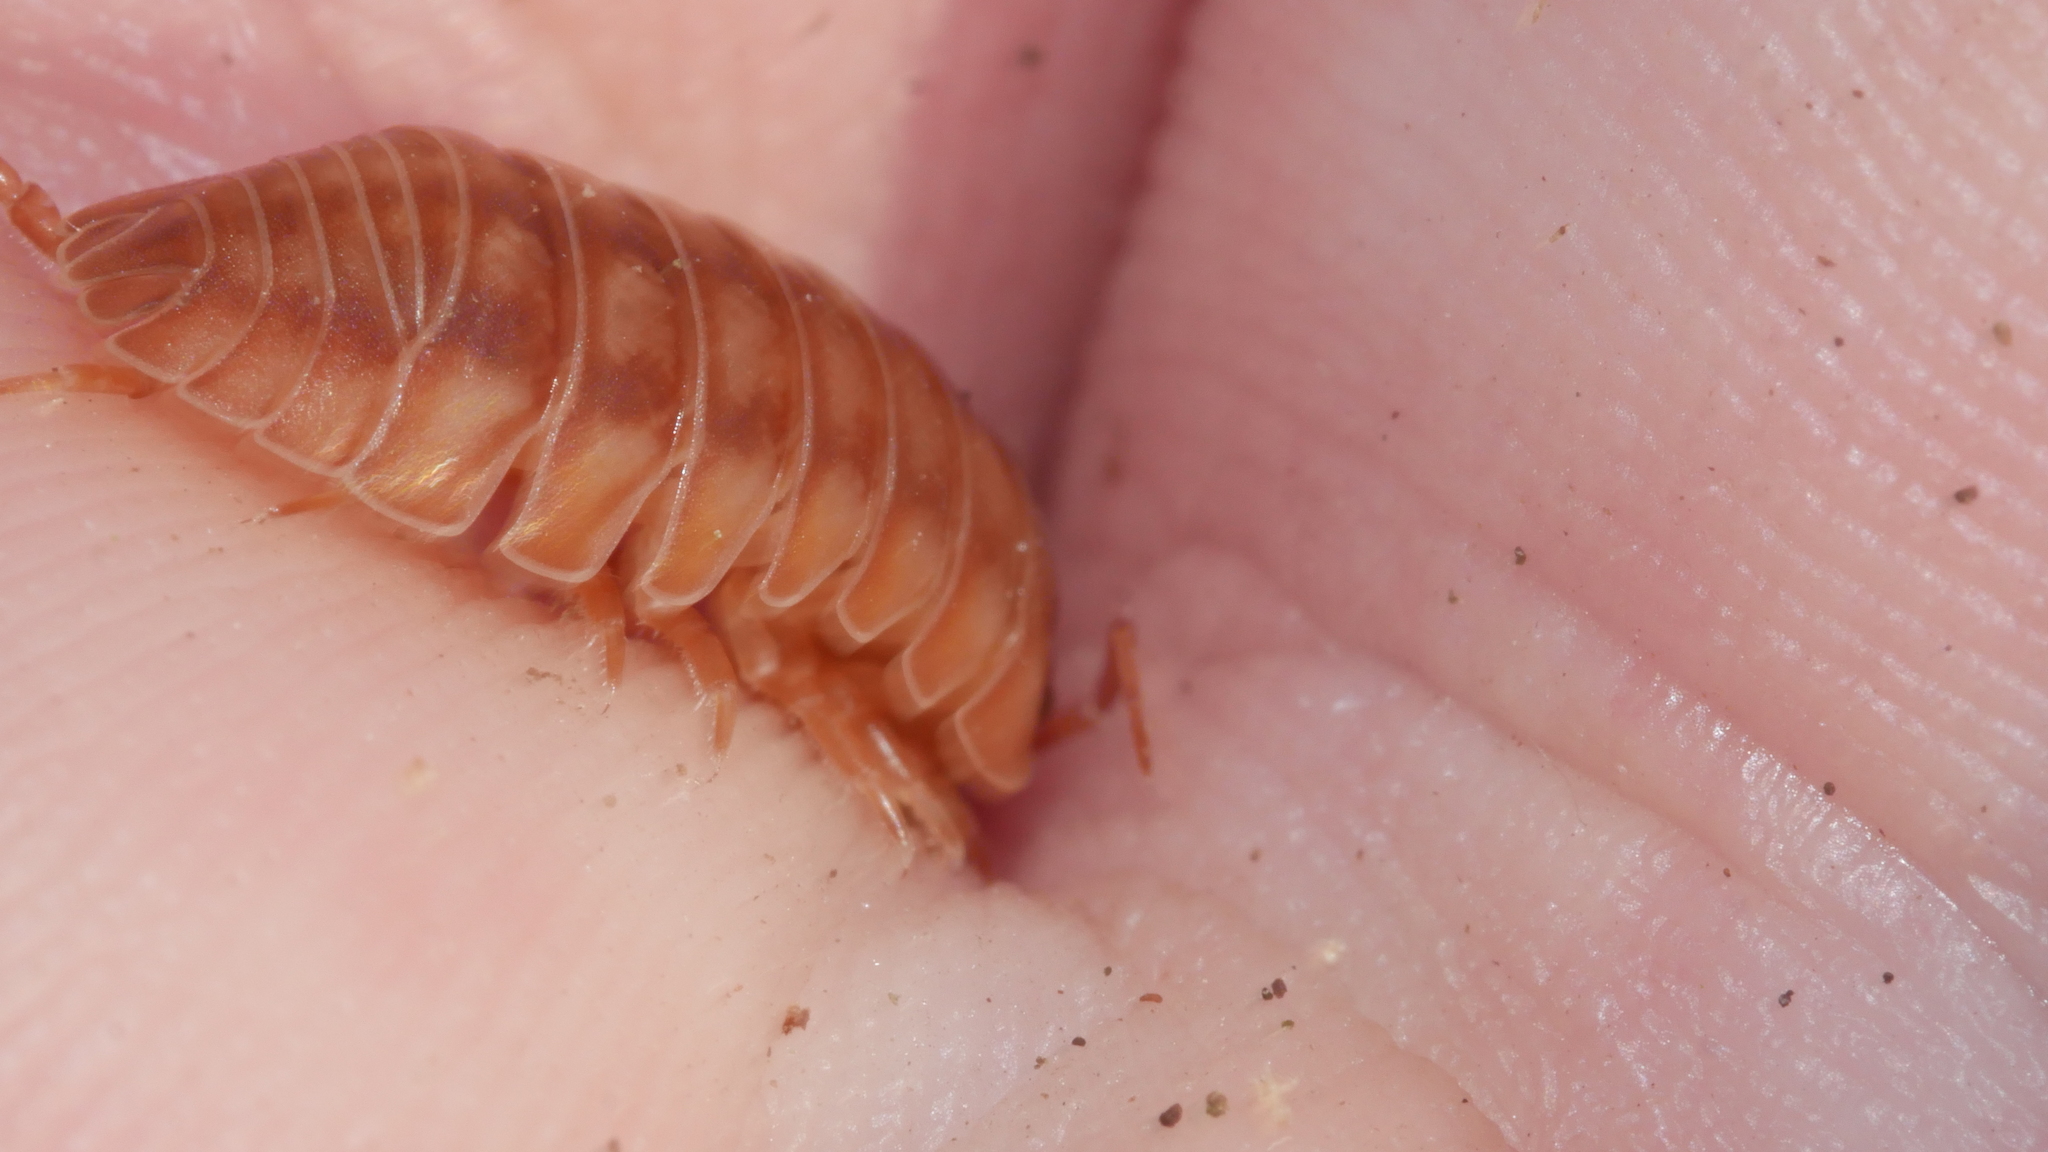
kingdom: Animalia
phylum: Arthropoda
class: Malacostraca
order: Isopoda
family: Armadillidiidae
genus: Armadillidium
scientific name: Armadillidium nasatum
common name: Isopod
